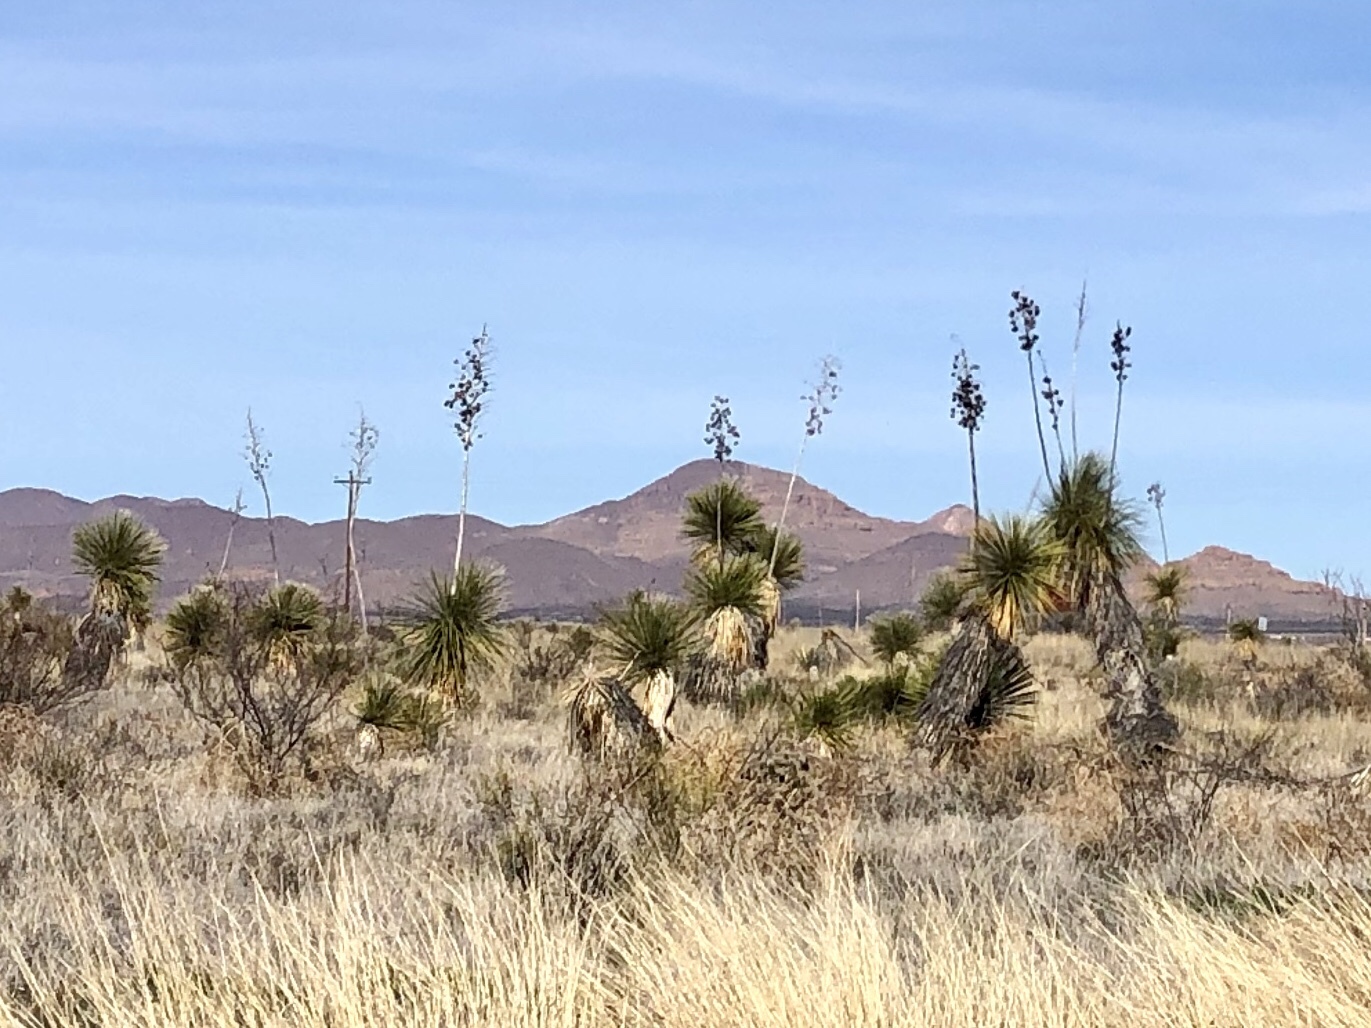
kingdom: Plantae
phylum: Tracheophyta
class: Liliopsida
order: Asparagales
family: Asparagaceae
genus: Yucca
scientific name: Yucca elata
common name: Palmella
